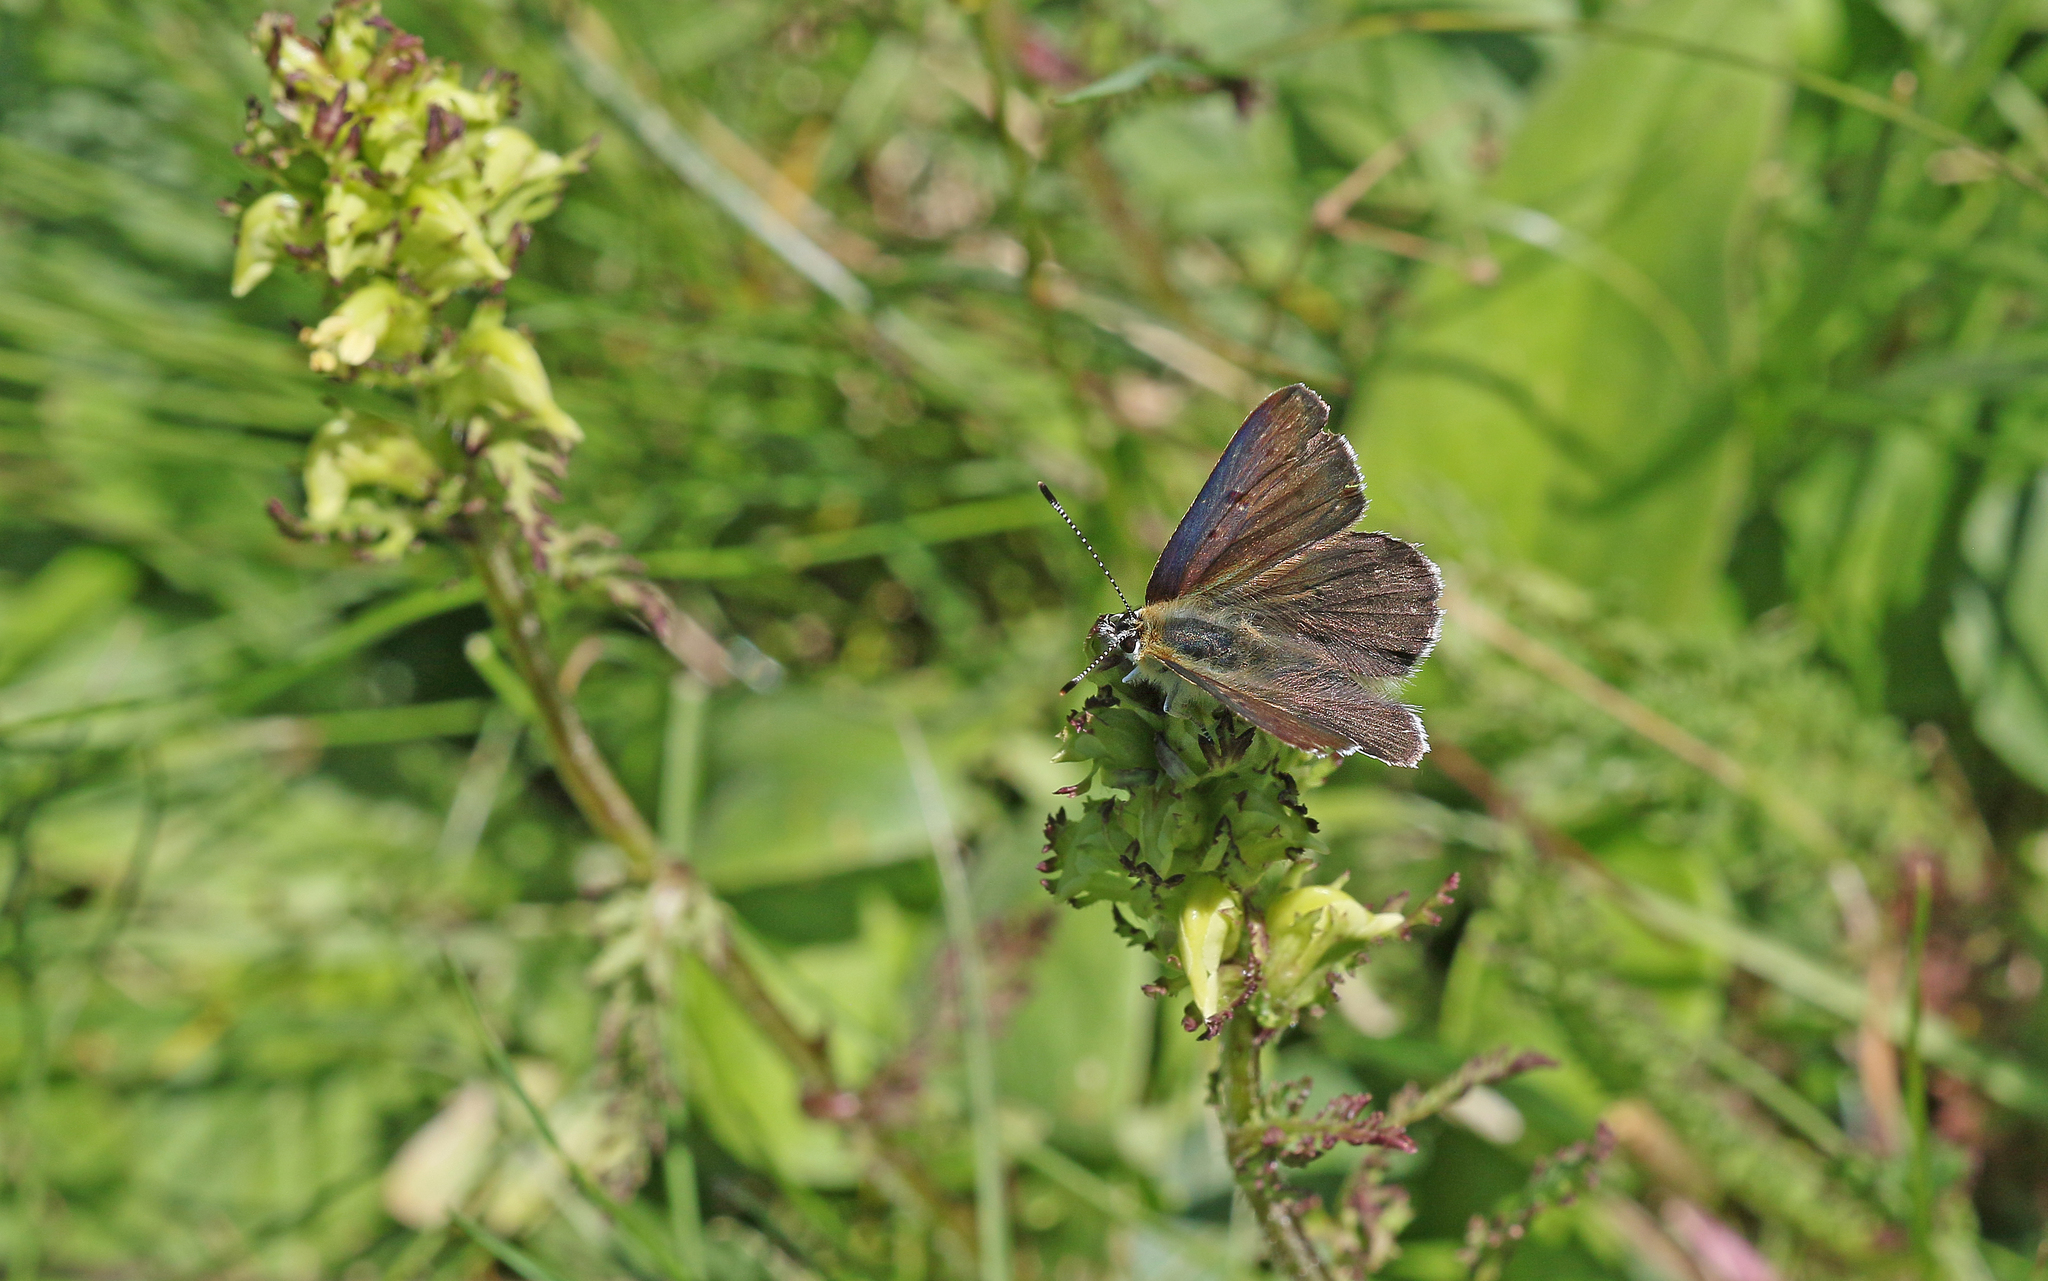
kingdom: Animalia
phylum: Arthropoda
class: Insecta
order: Lepidoptera
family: Lycaenidae
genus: Loweia
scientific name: Loweia tityrus
